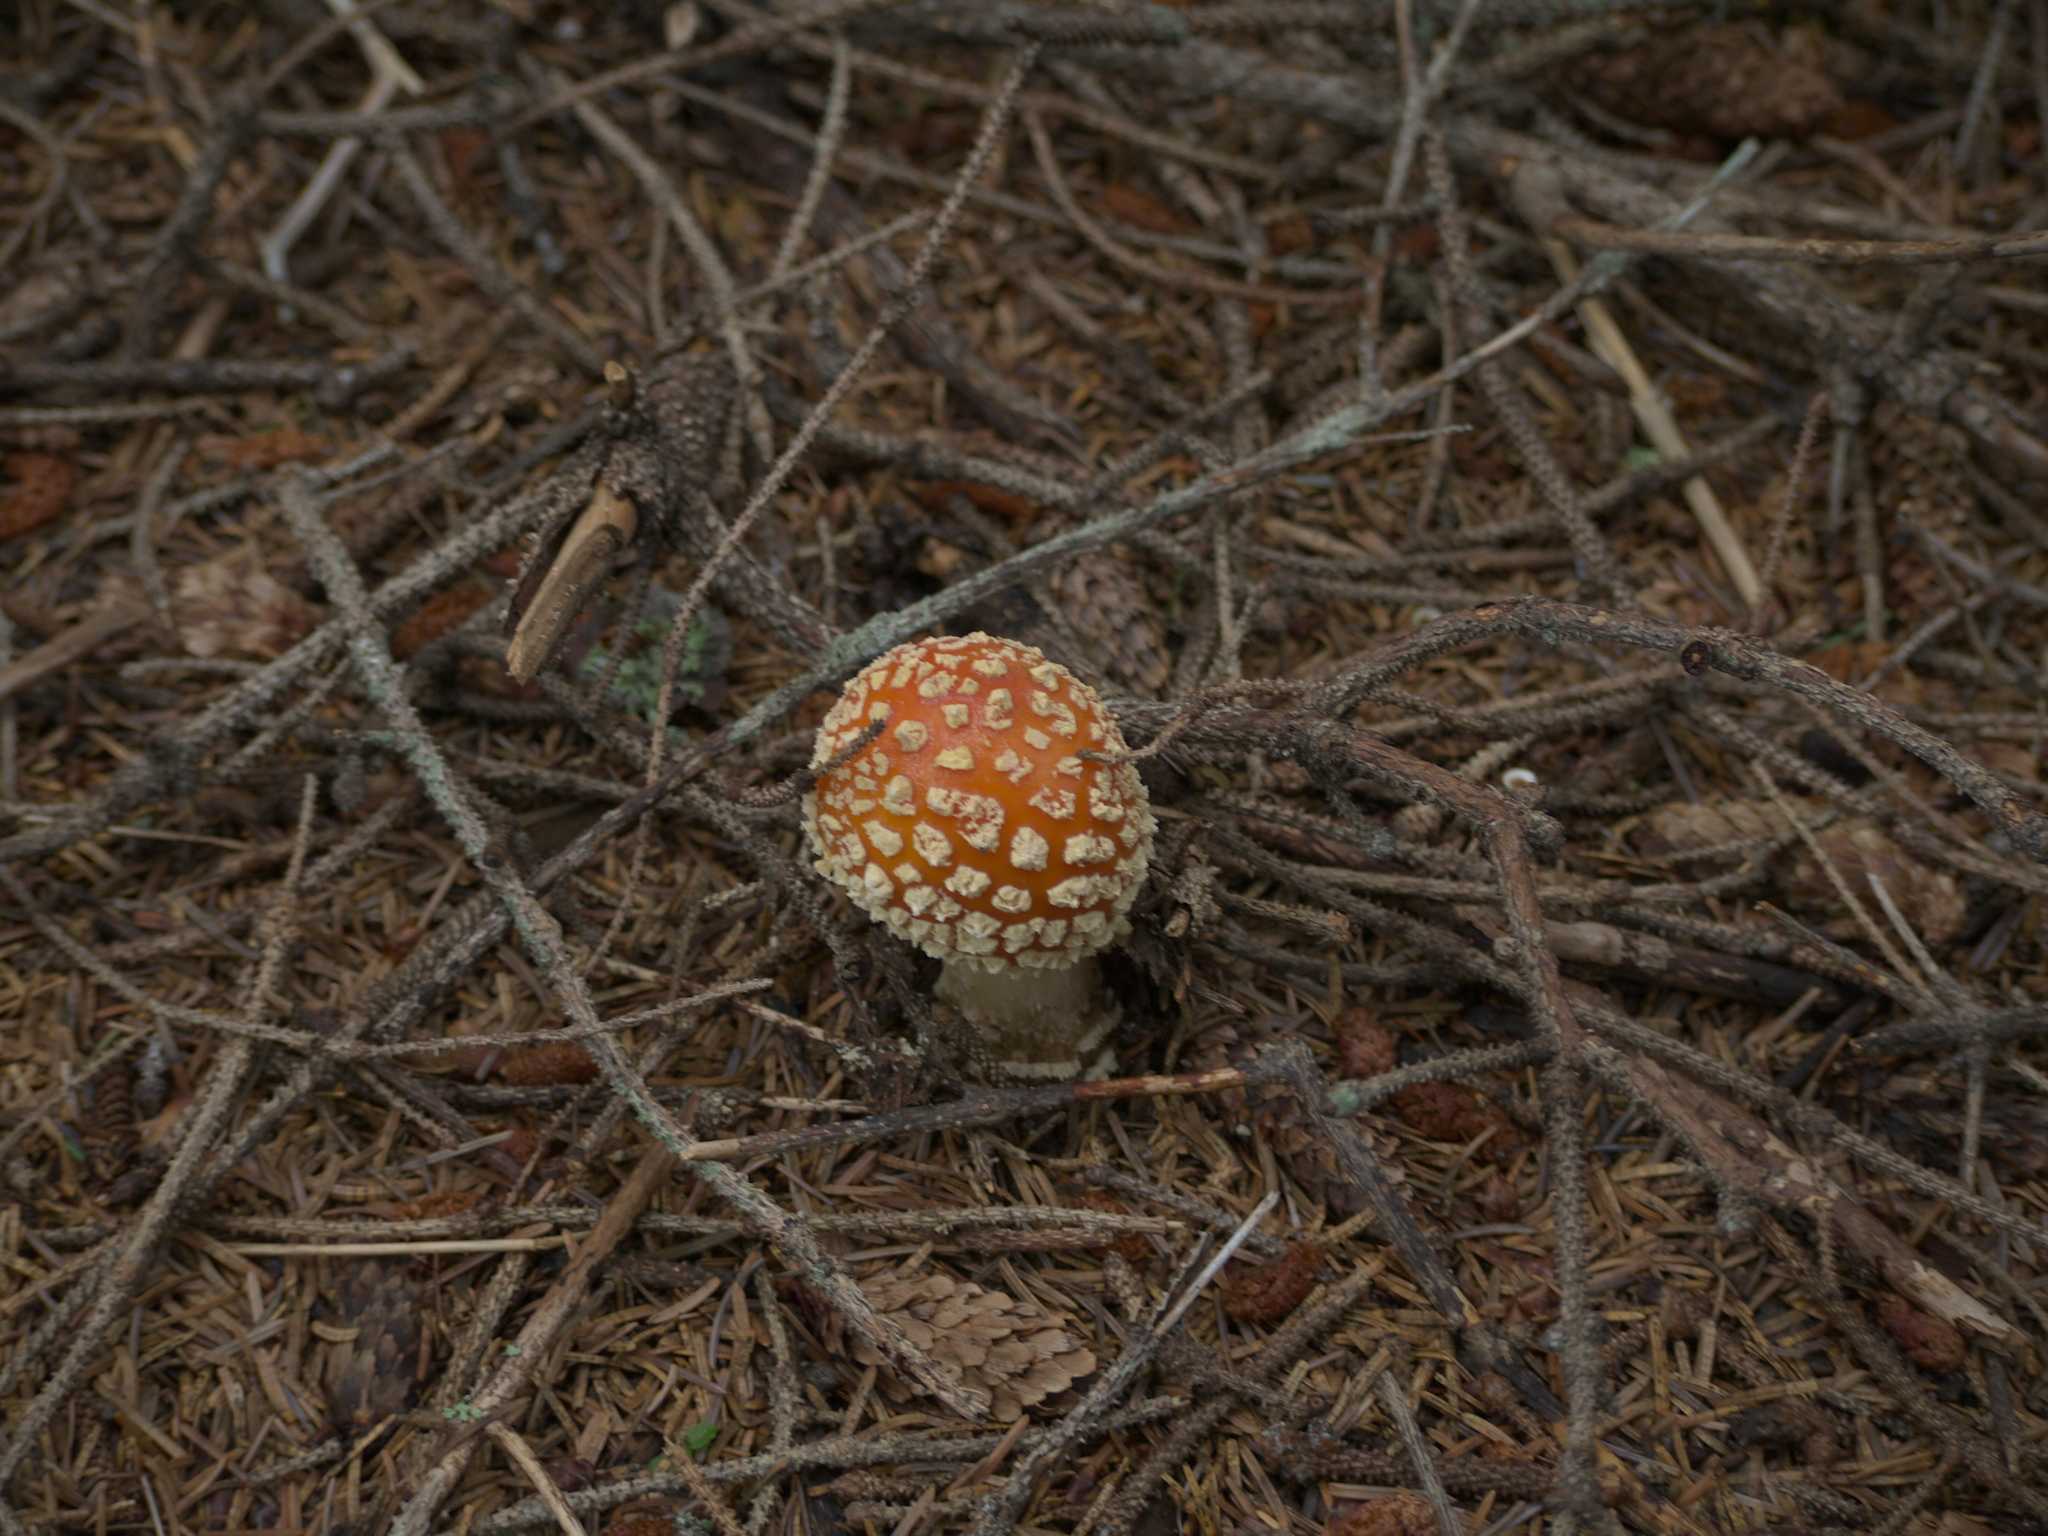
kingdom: Fungi
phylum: Basidiomycota
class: Agaricomycetes
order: Agaricales
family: Amanitaceae
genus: Amanita
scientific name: Amanita muscaria
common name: Fly agaric
